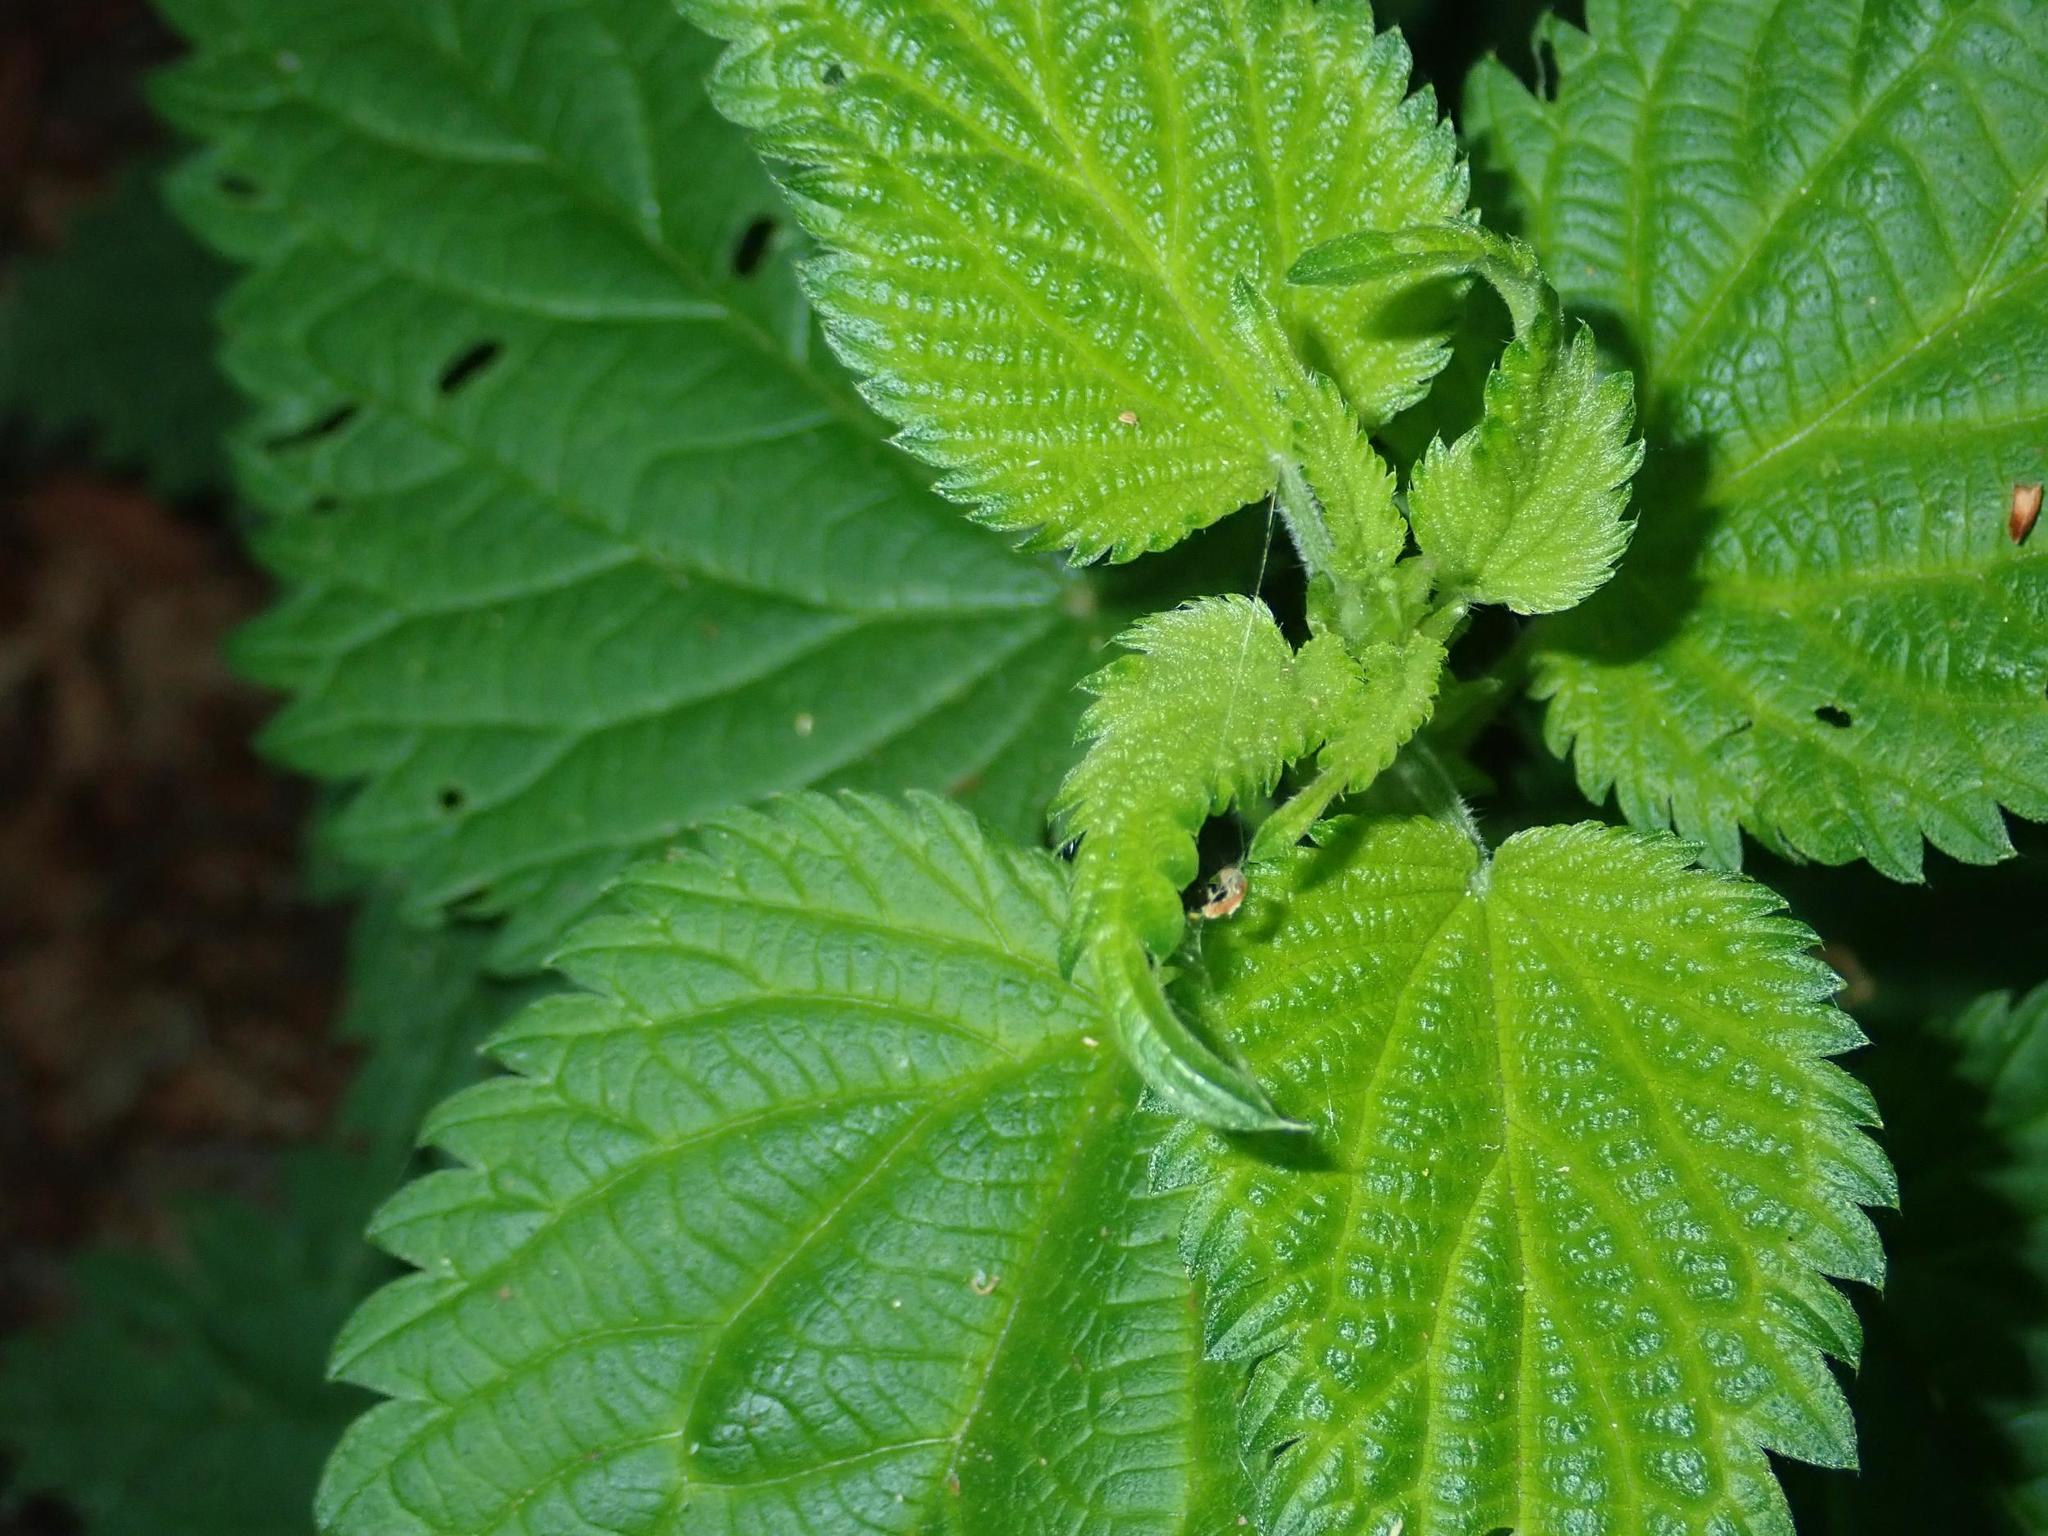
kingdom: Plantae
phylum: Tracheophyta
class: Magnoliopsida
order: Rosales
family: Urticaceae
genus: Urtica
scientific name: Urtica dioica
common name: Common nettle
